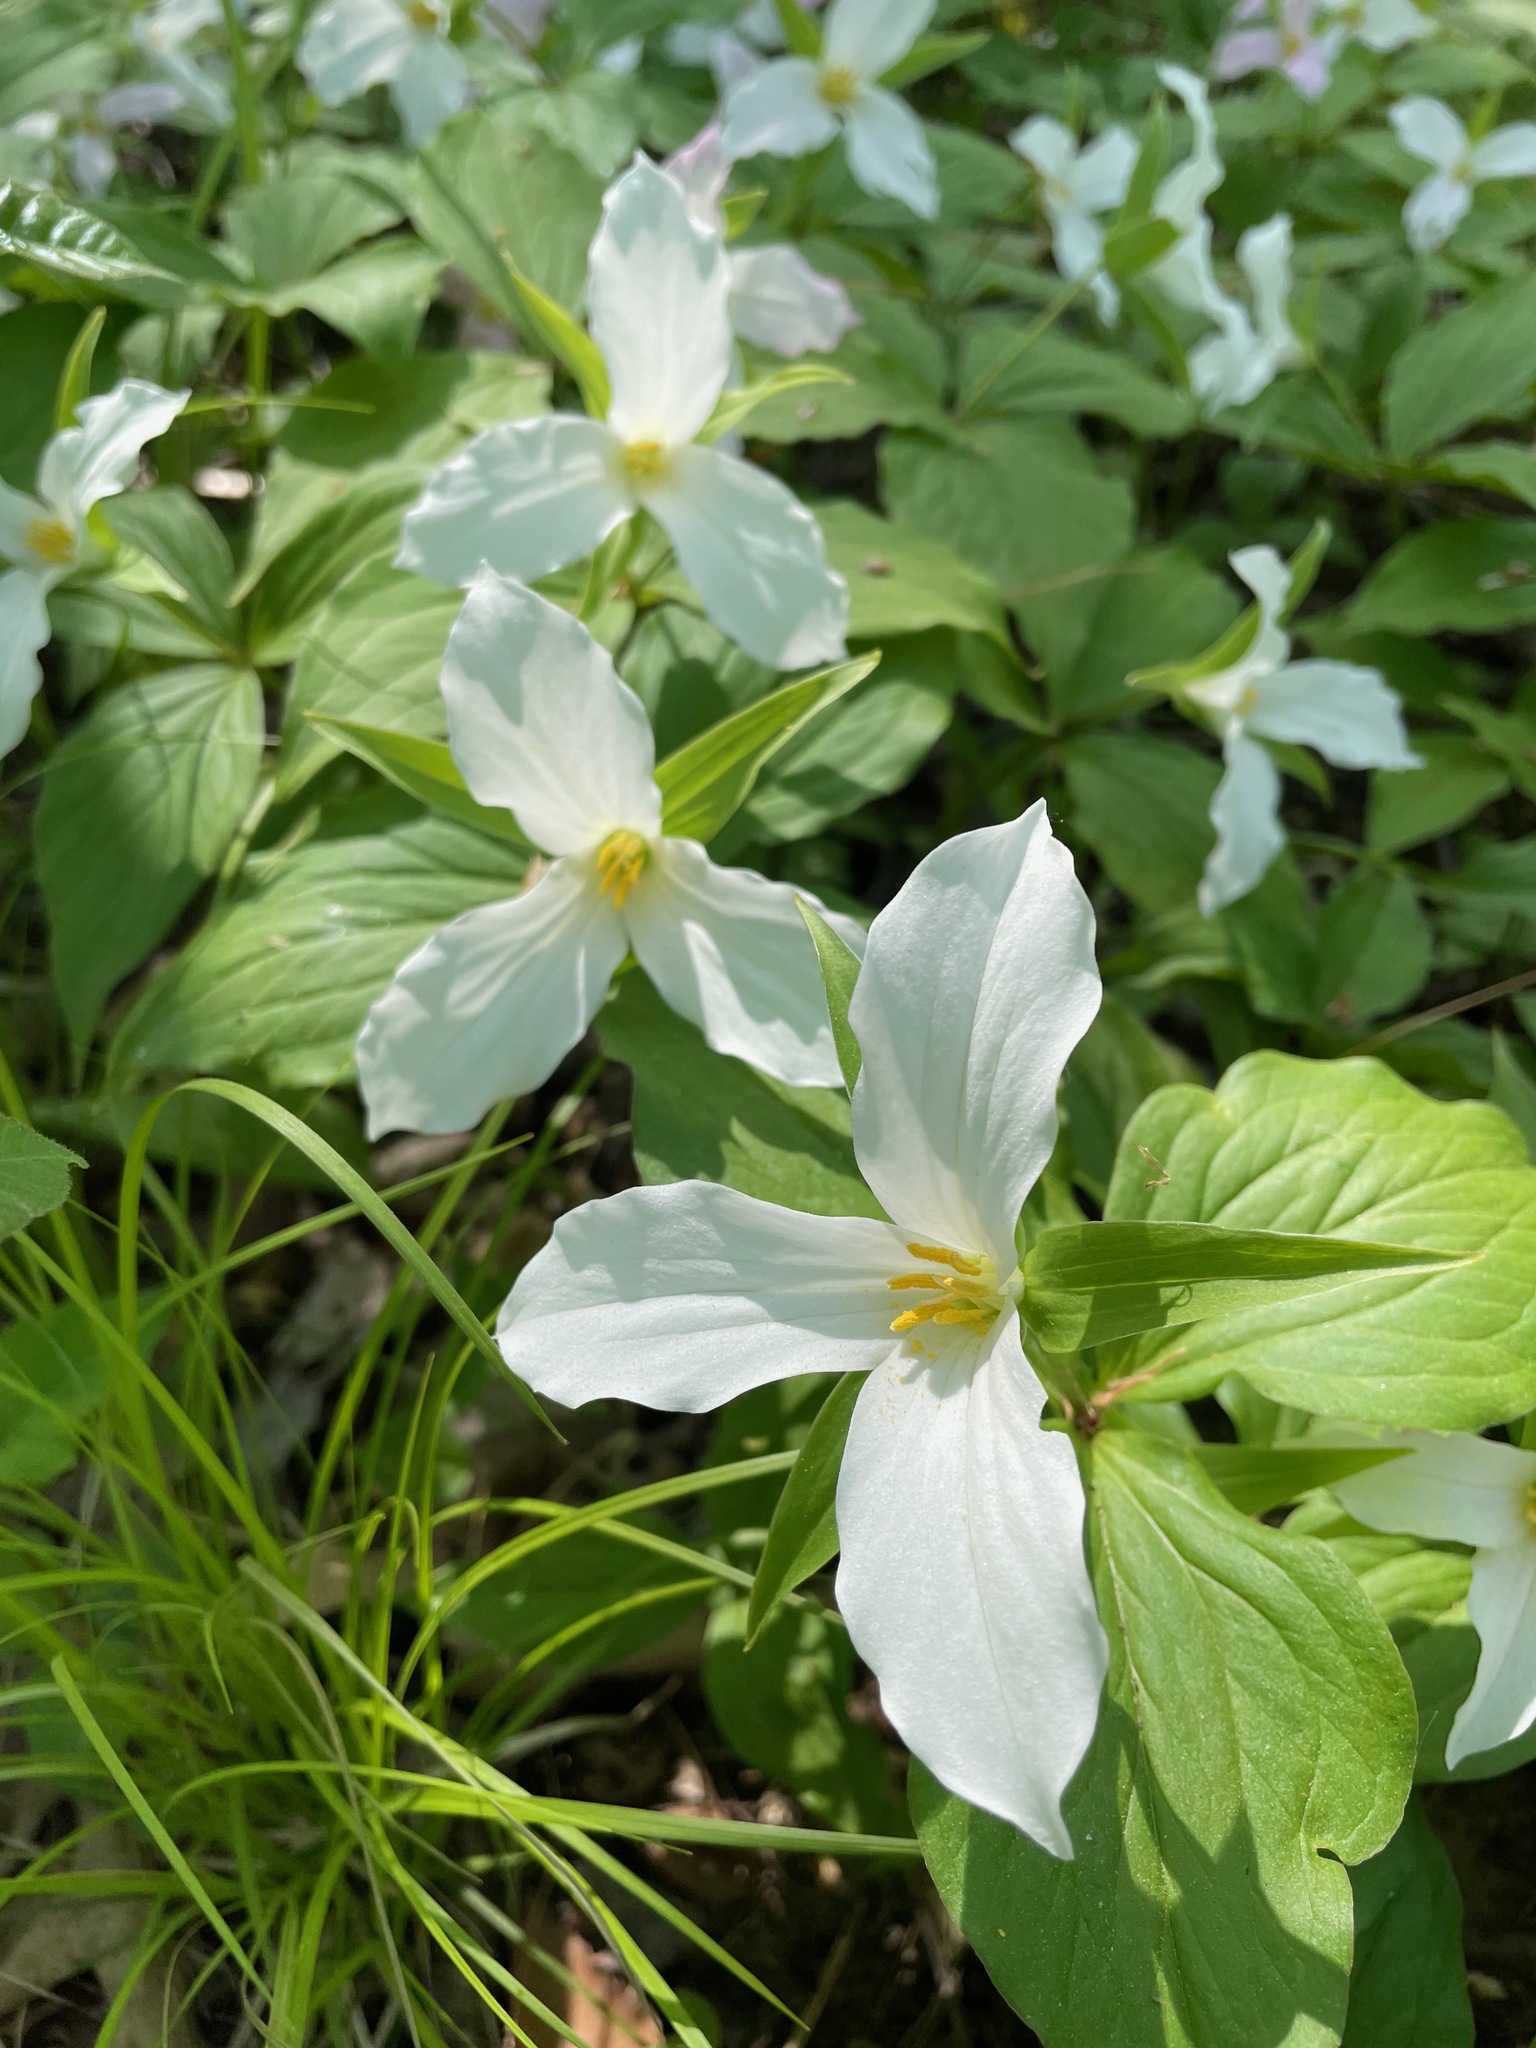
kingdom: Plantae
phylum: Tracheophyta
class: Liliopsida
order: Liliales
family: Melanthiaceae
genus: Trillium
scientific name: Trillium grandiflorum
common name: Great white trillium
